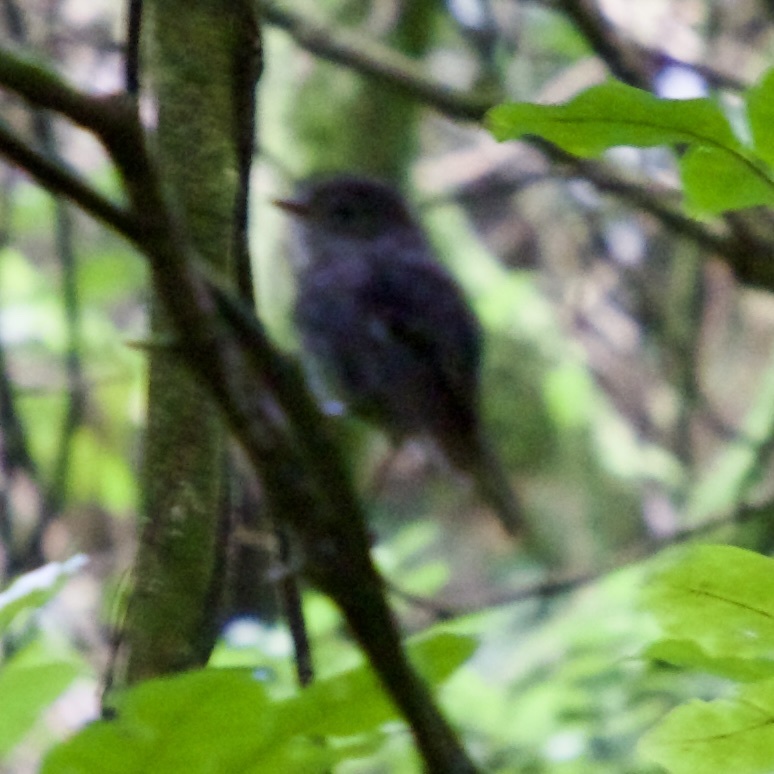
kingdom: Animalia
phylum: Chordata
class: Aves
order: Passeriformes
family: Petroicidae
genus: Petroica
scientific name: Petroica australis
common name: New zealand robin
